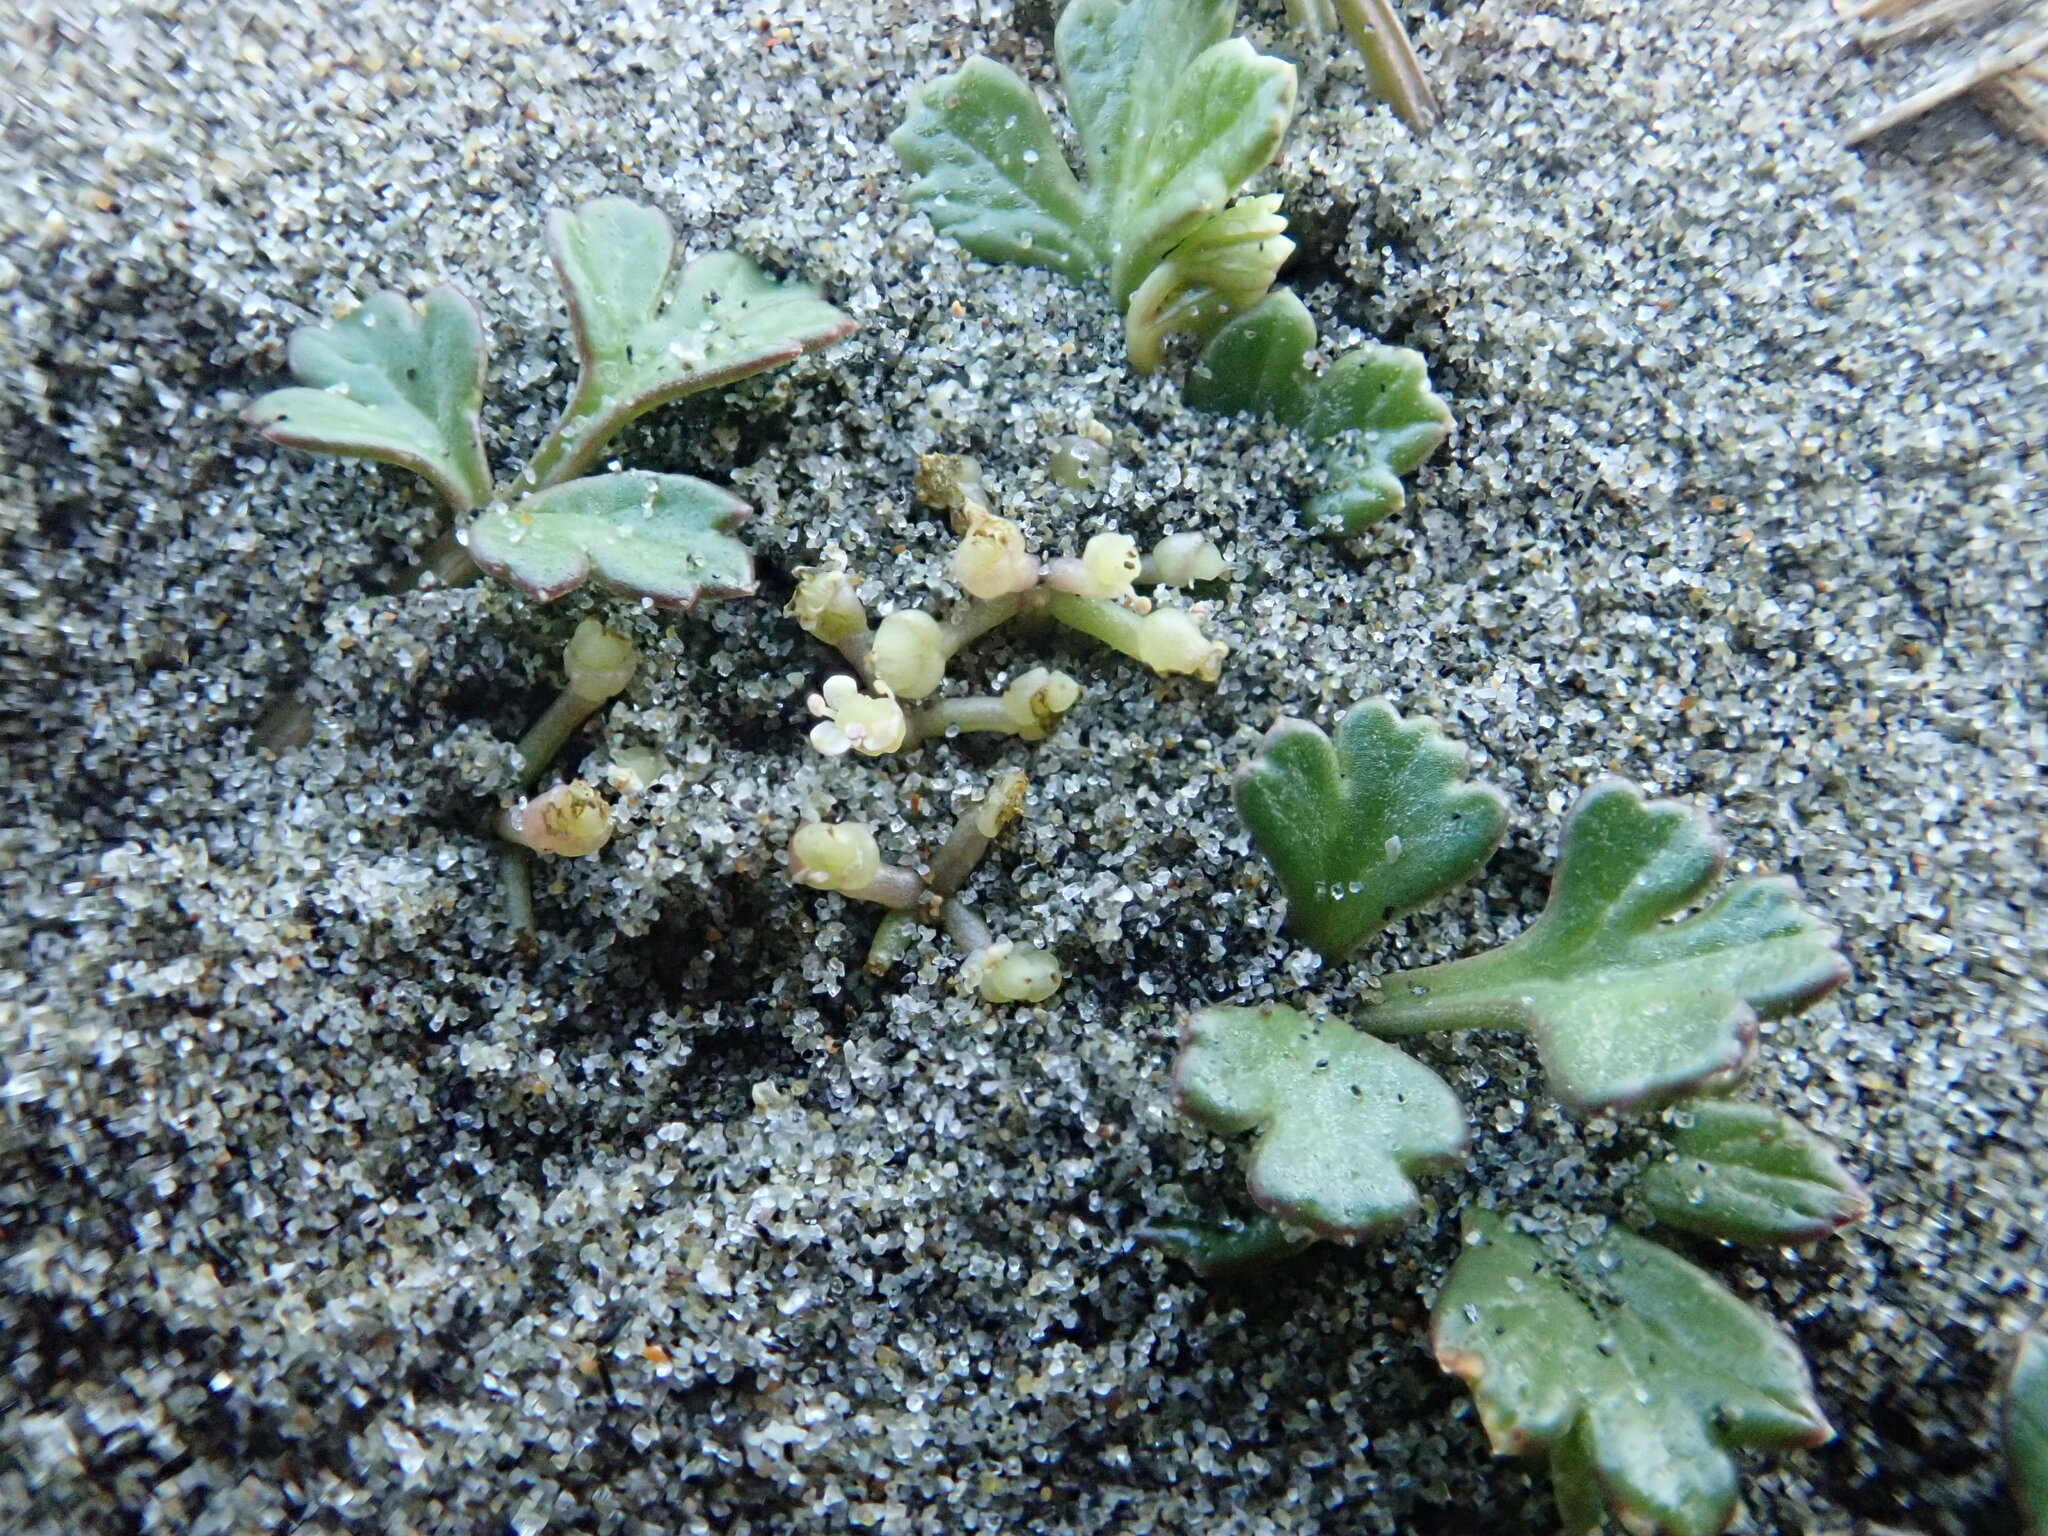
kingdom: Plantae
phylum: Tracheophyta
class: Magnoliopsida
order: Apiales
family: Apiaceae
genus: Apium
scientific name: Apium prostratum
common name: Prostrate marshwort
